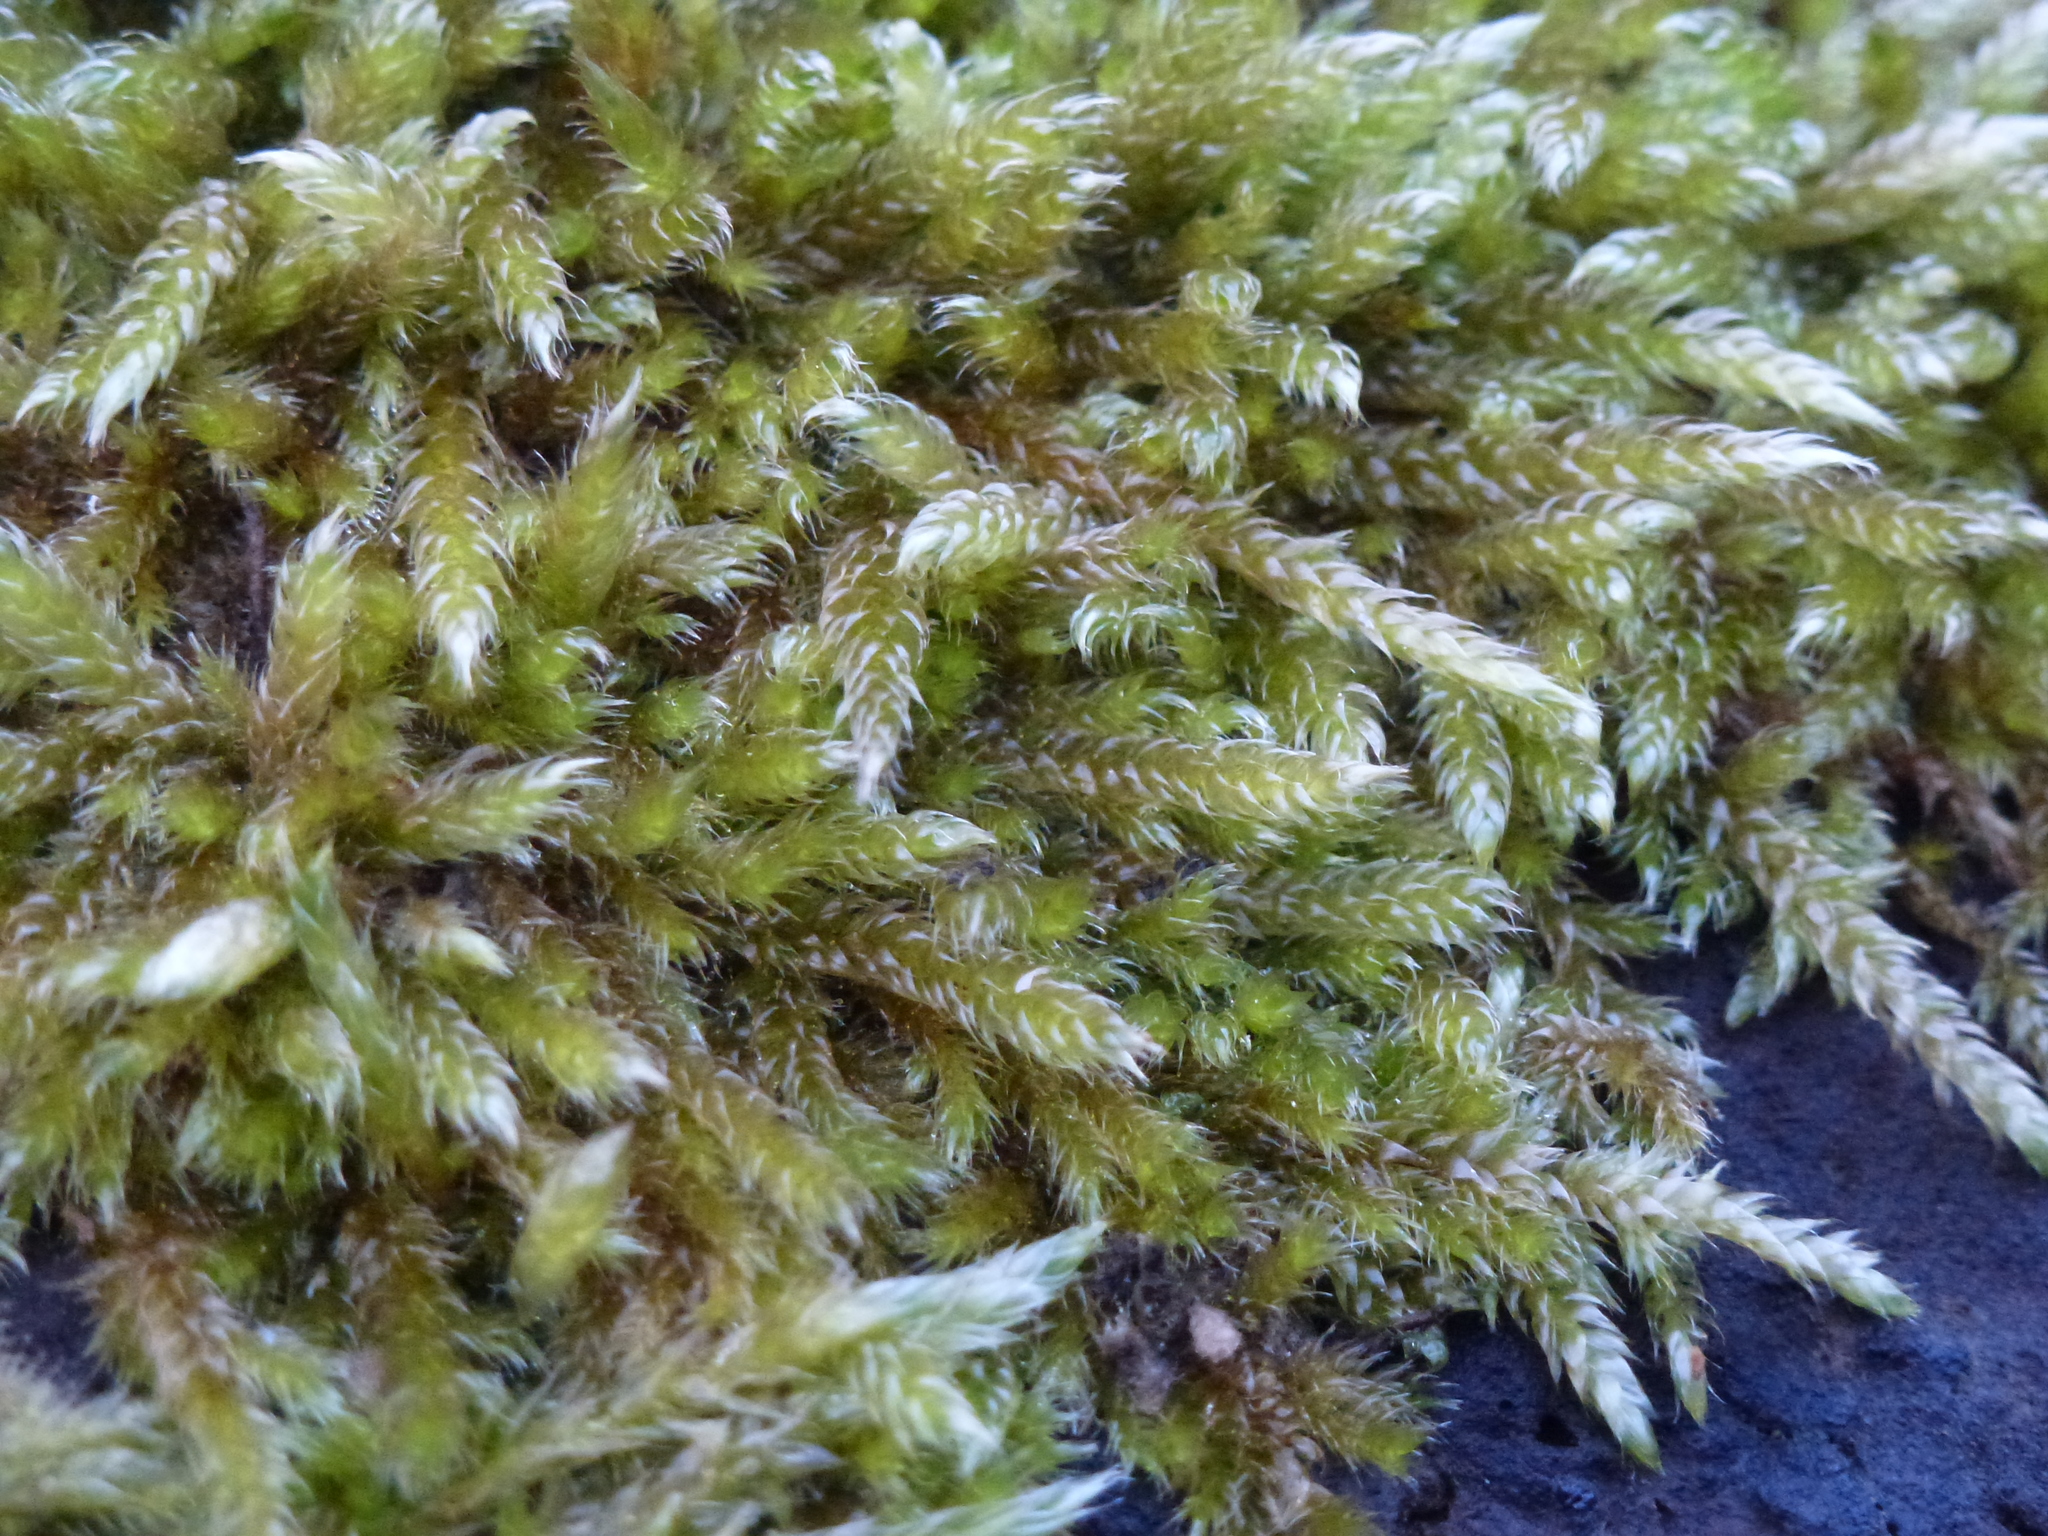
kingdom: Plantae
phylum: Bryophyta
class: Bryopsida
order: Hypnales
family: Hypnaceae
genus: Hypnum
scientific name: Hypnum cupressiforme
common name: Cypress-leaved plait-moss
